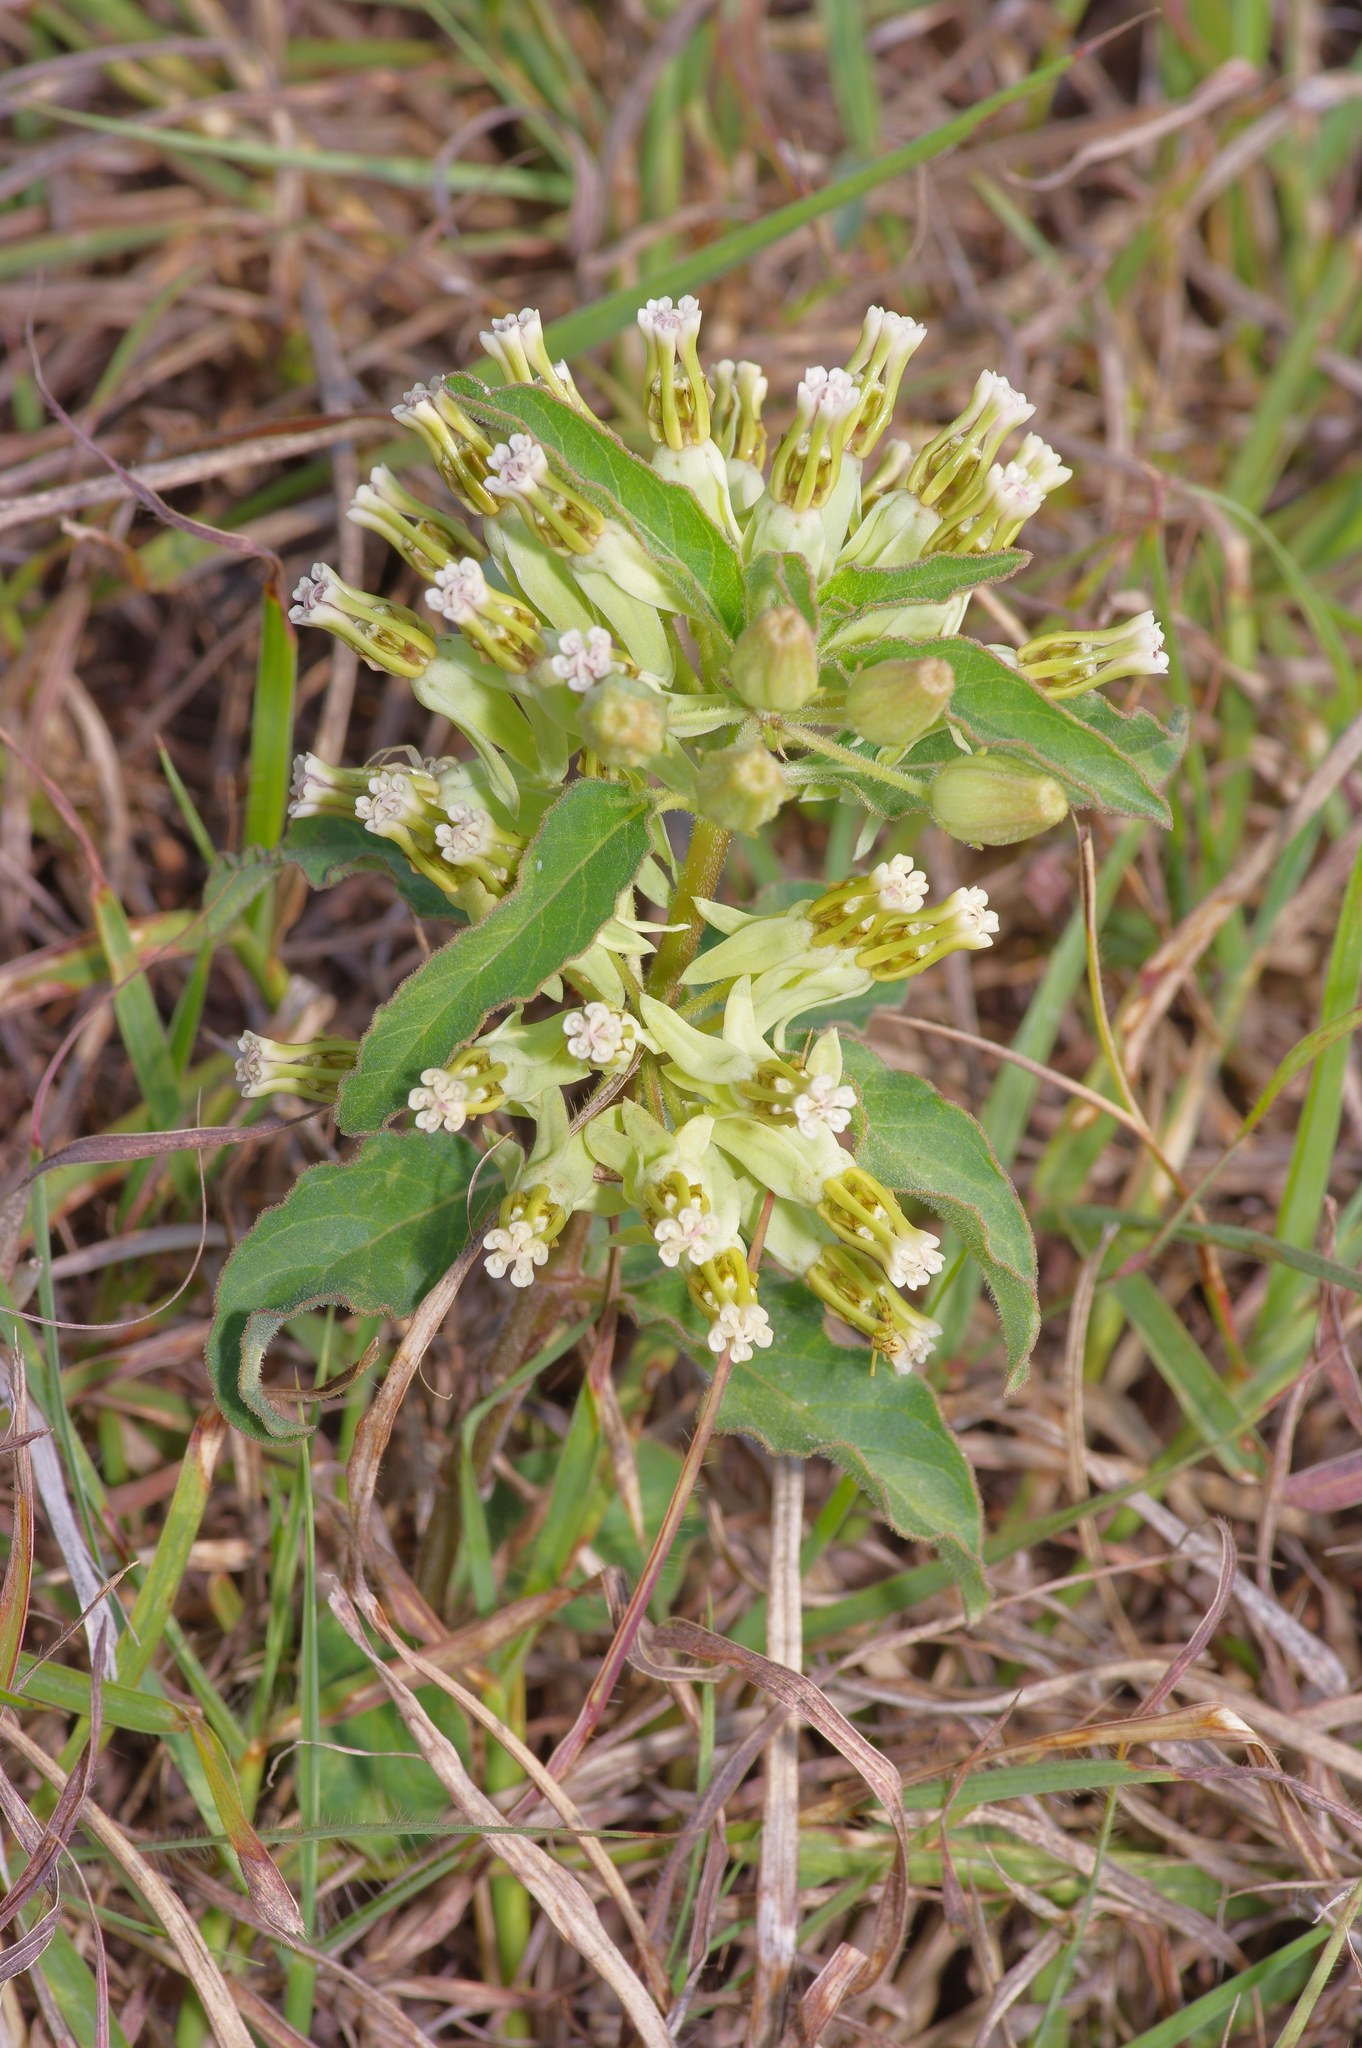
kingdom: Plantae
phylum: Tracheophyta
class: Magnoliopsida
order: Gentianales
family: Apocynaceae
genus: Asclepias
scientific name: Asclepias oenotheroides
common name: Zizotes milkweed
